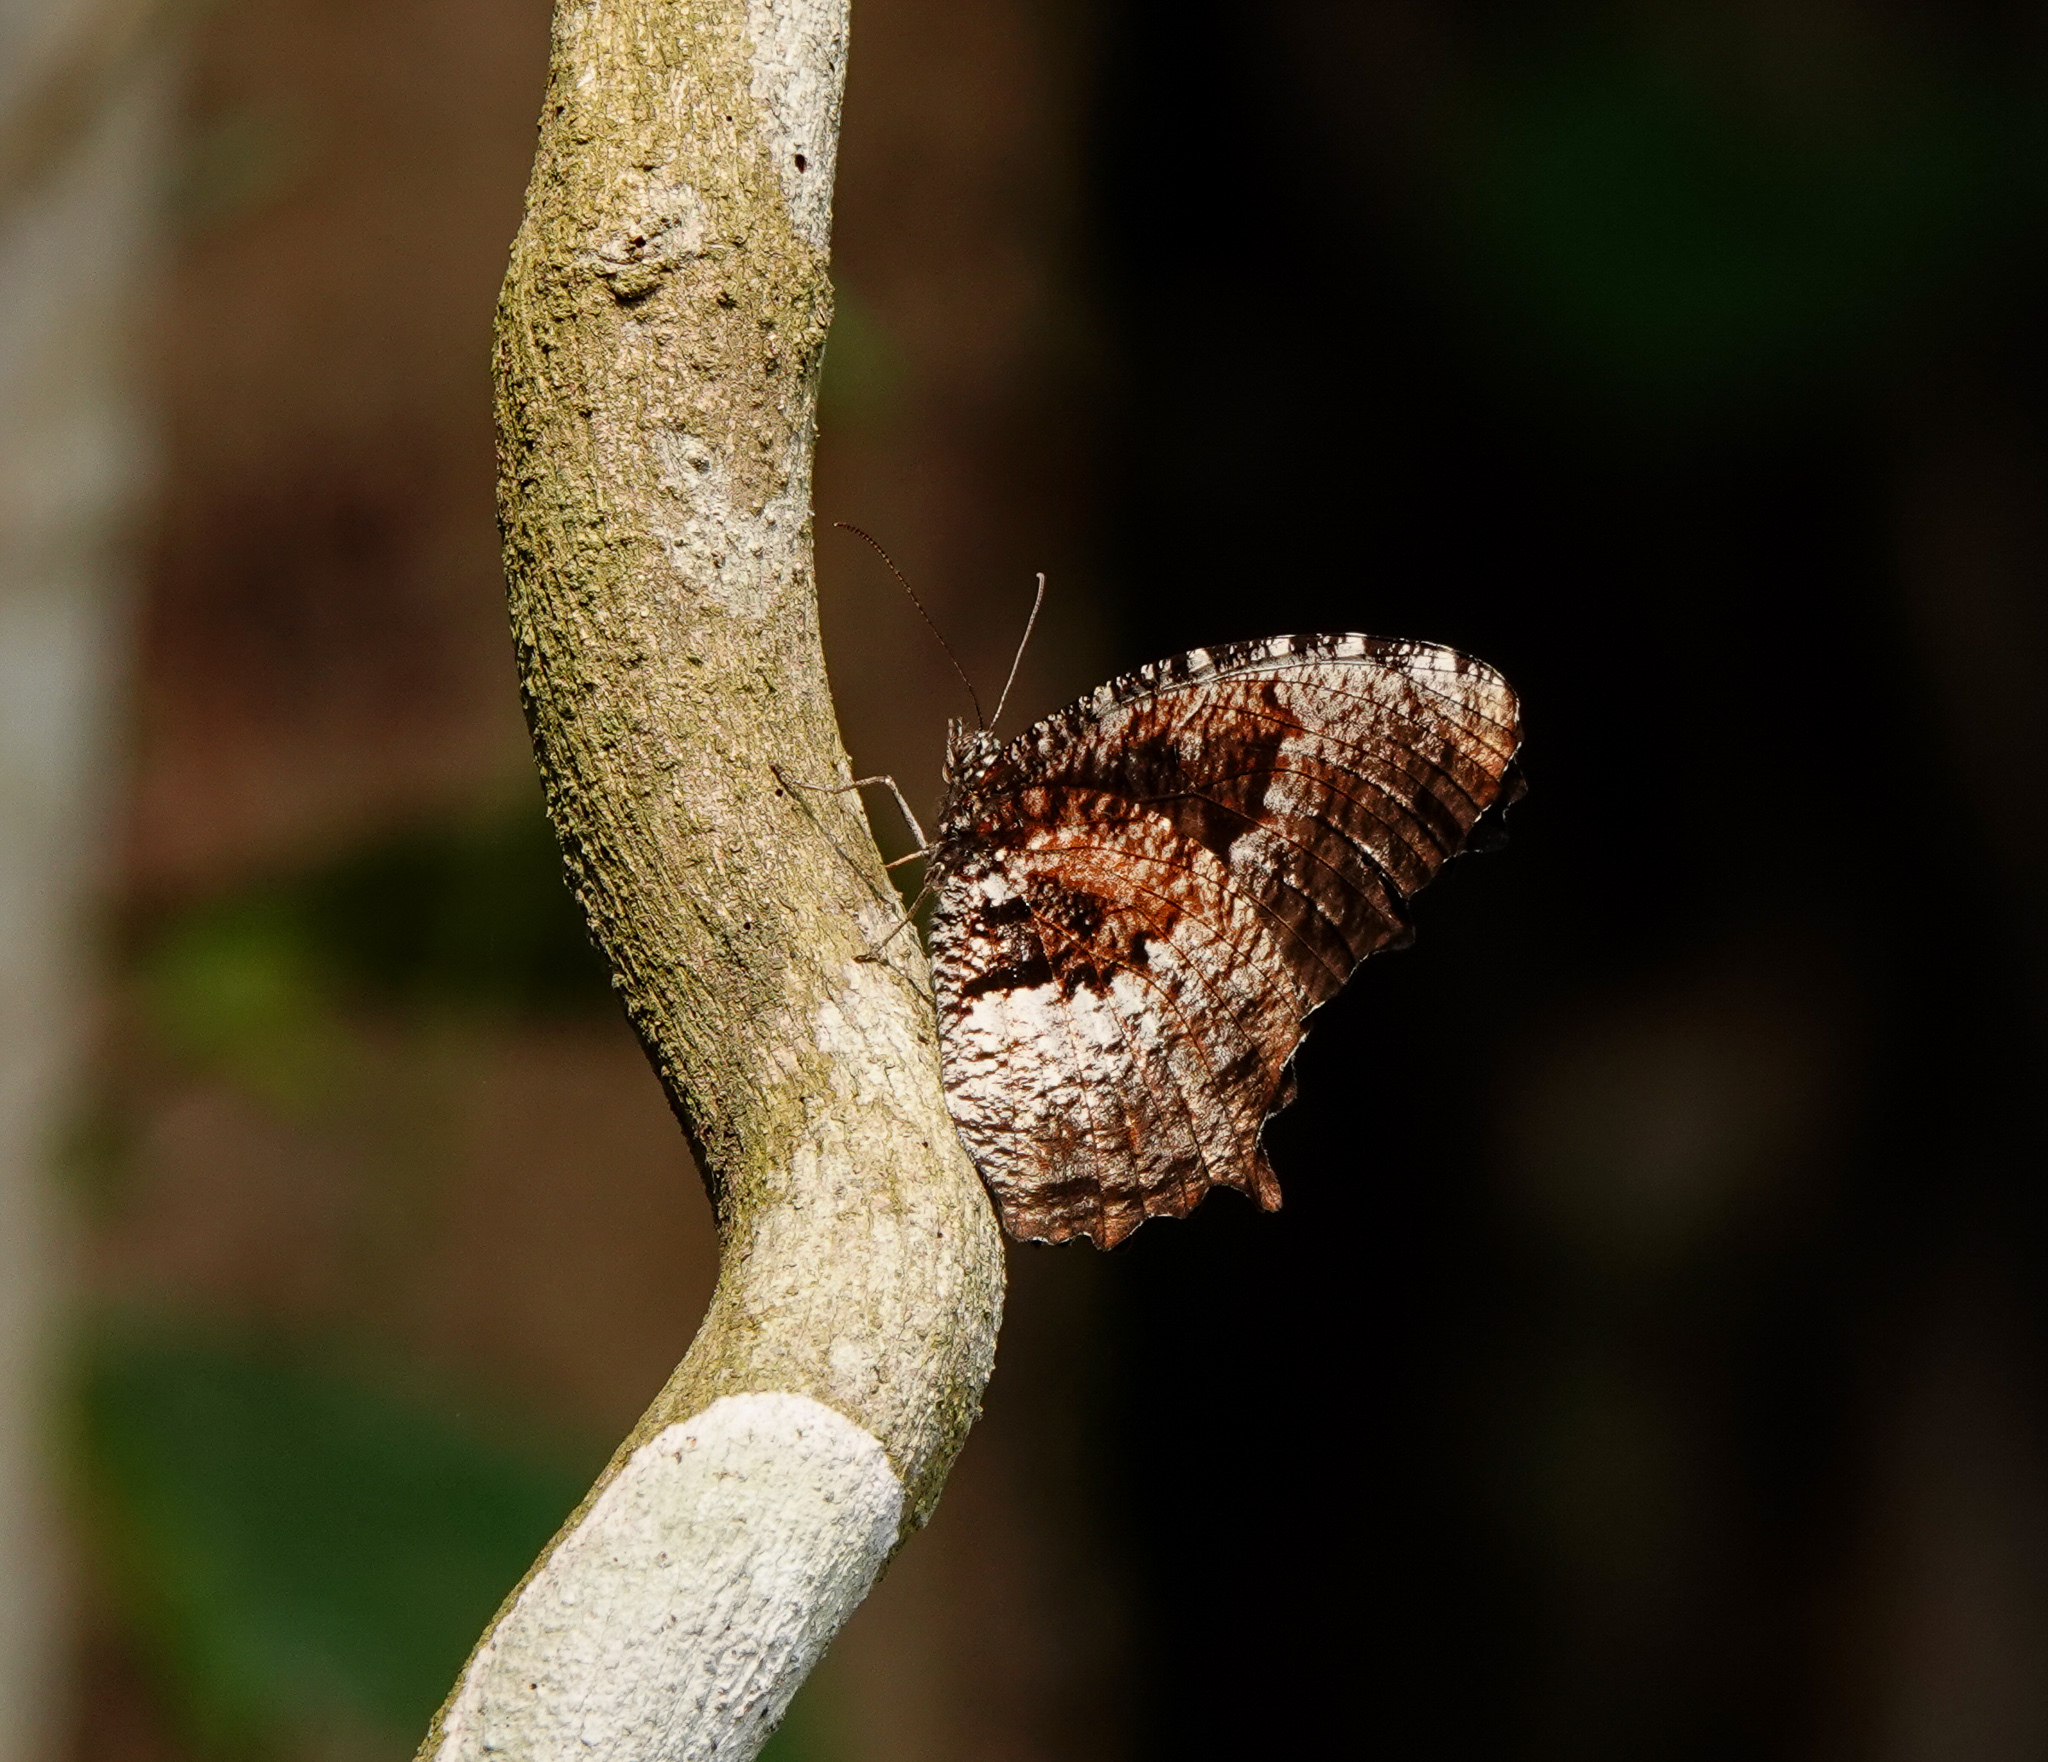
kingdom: Animalia
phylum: Arthropoda
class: Insecta
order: Lepidoptera
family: Nymphalidae
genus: Elymnias
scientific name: Elymnias nesaea
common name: Tiger palmfly
